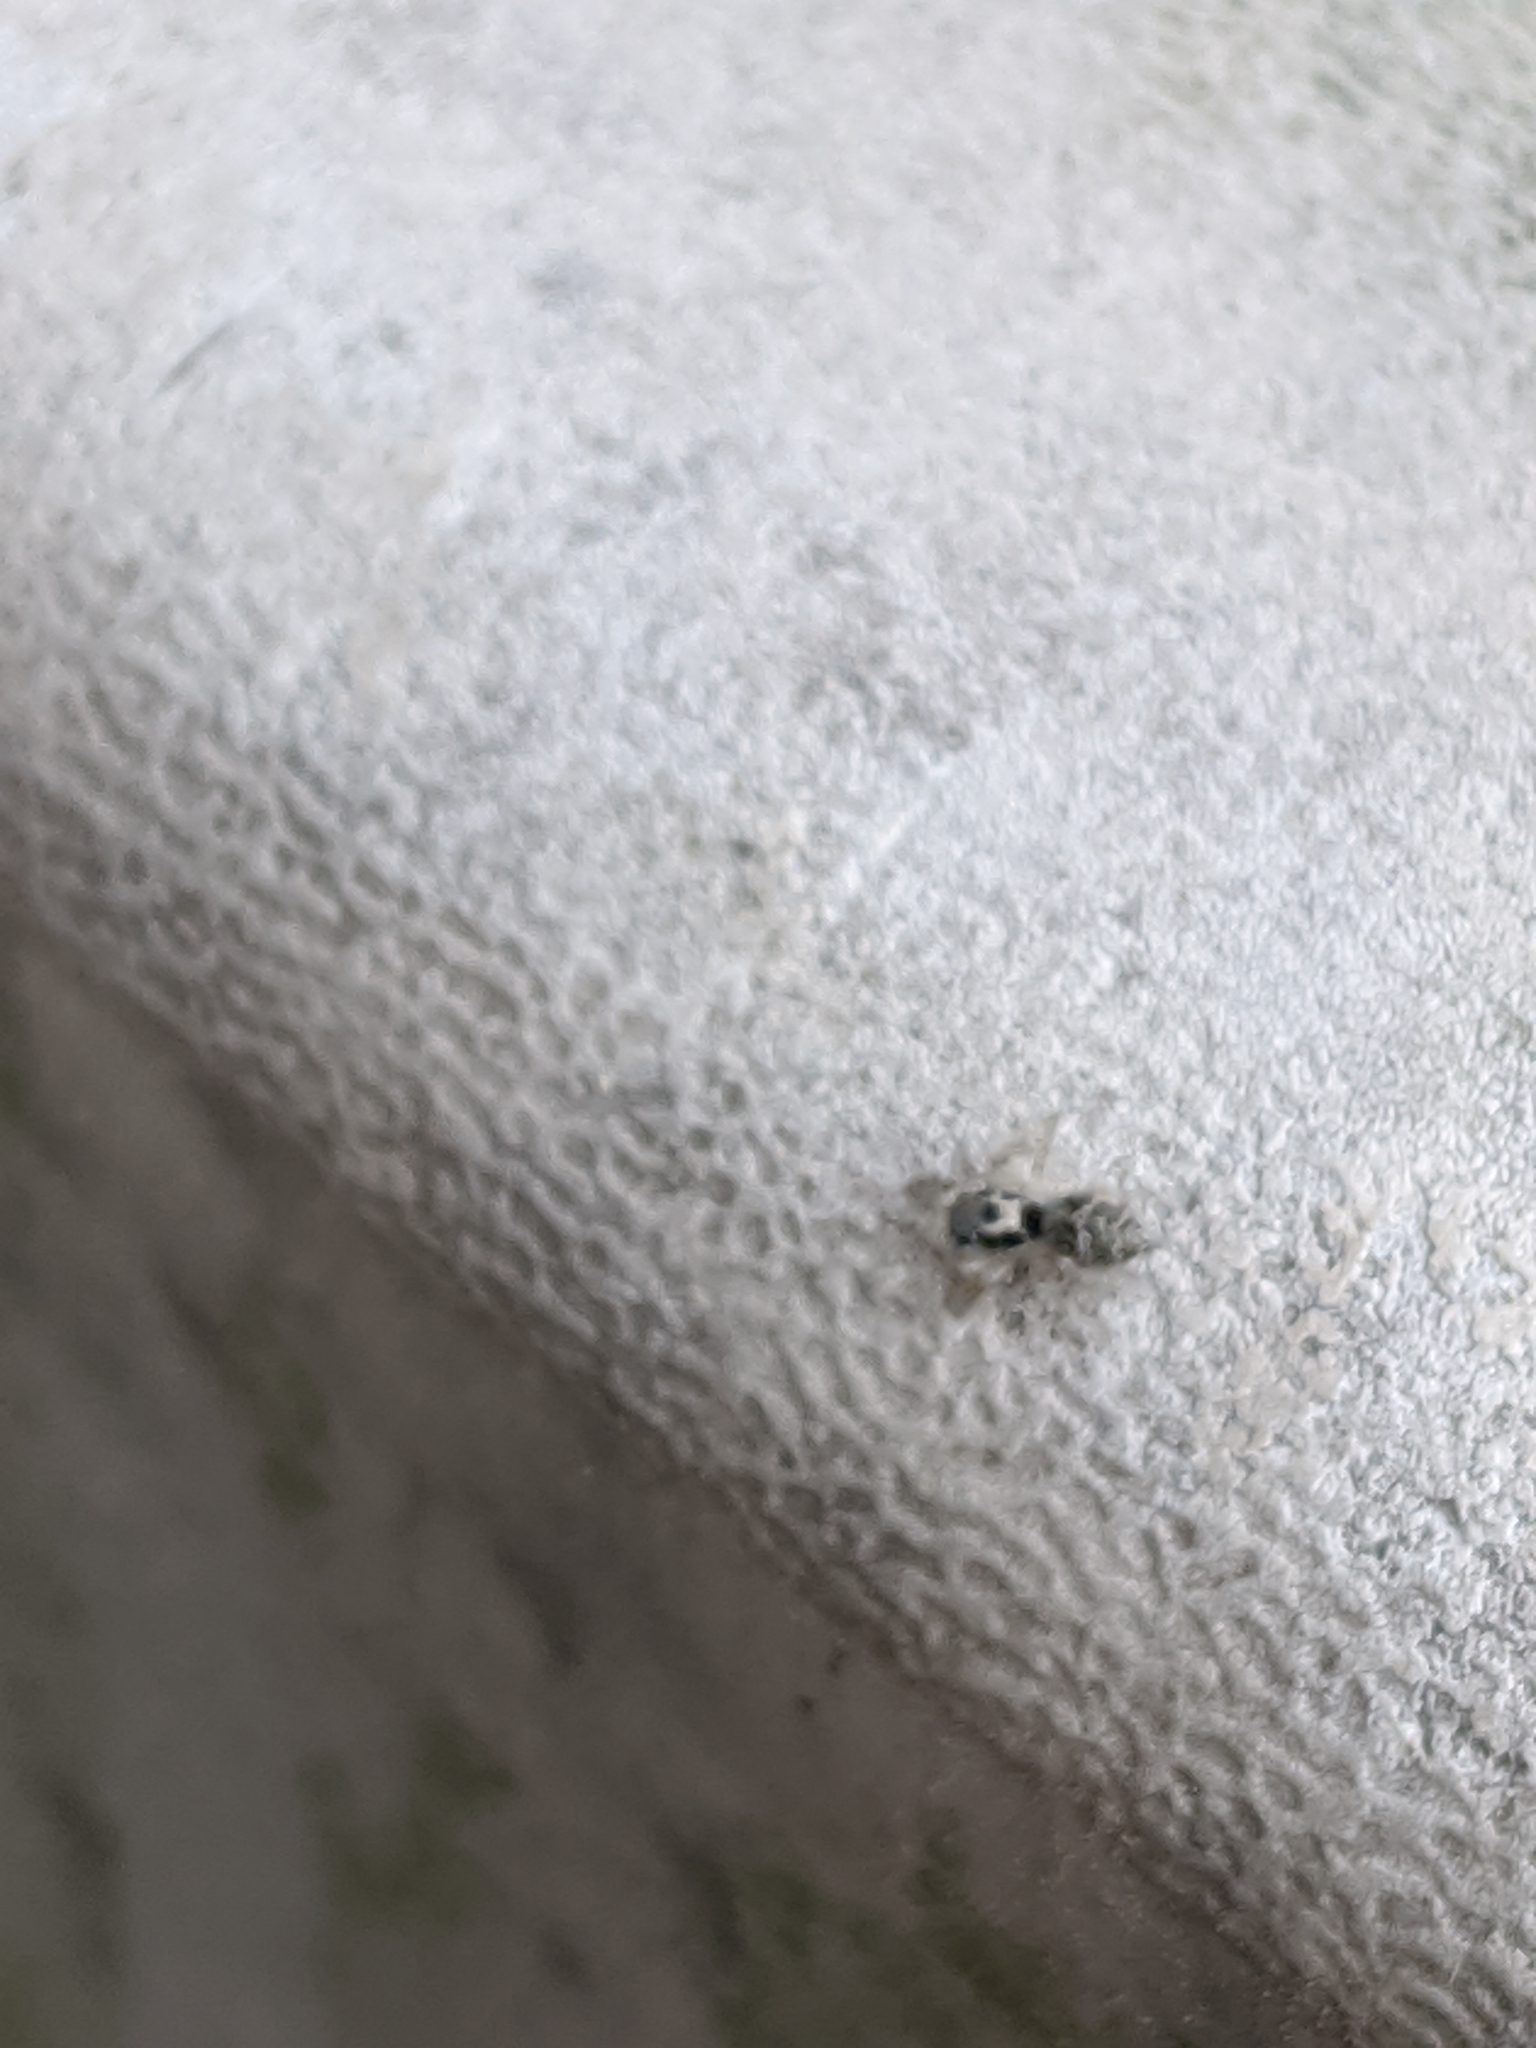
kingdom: Animalia
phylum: Arthropoda
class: Arachnida
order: Araneae
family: Salticidae
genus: Salticus
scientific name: Salticus scenicus
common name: Zebra jumper
